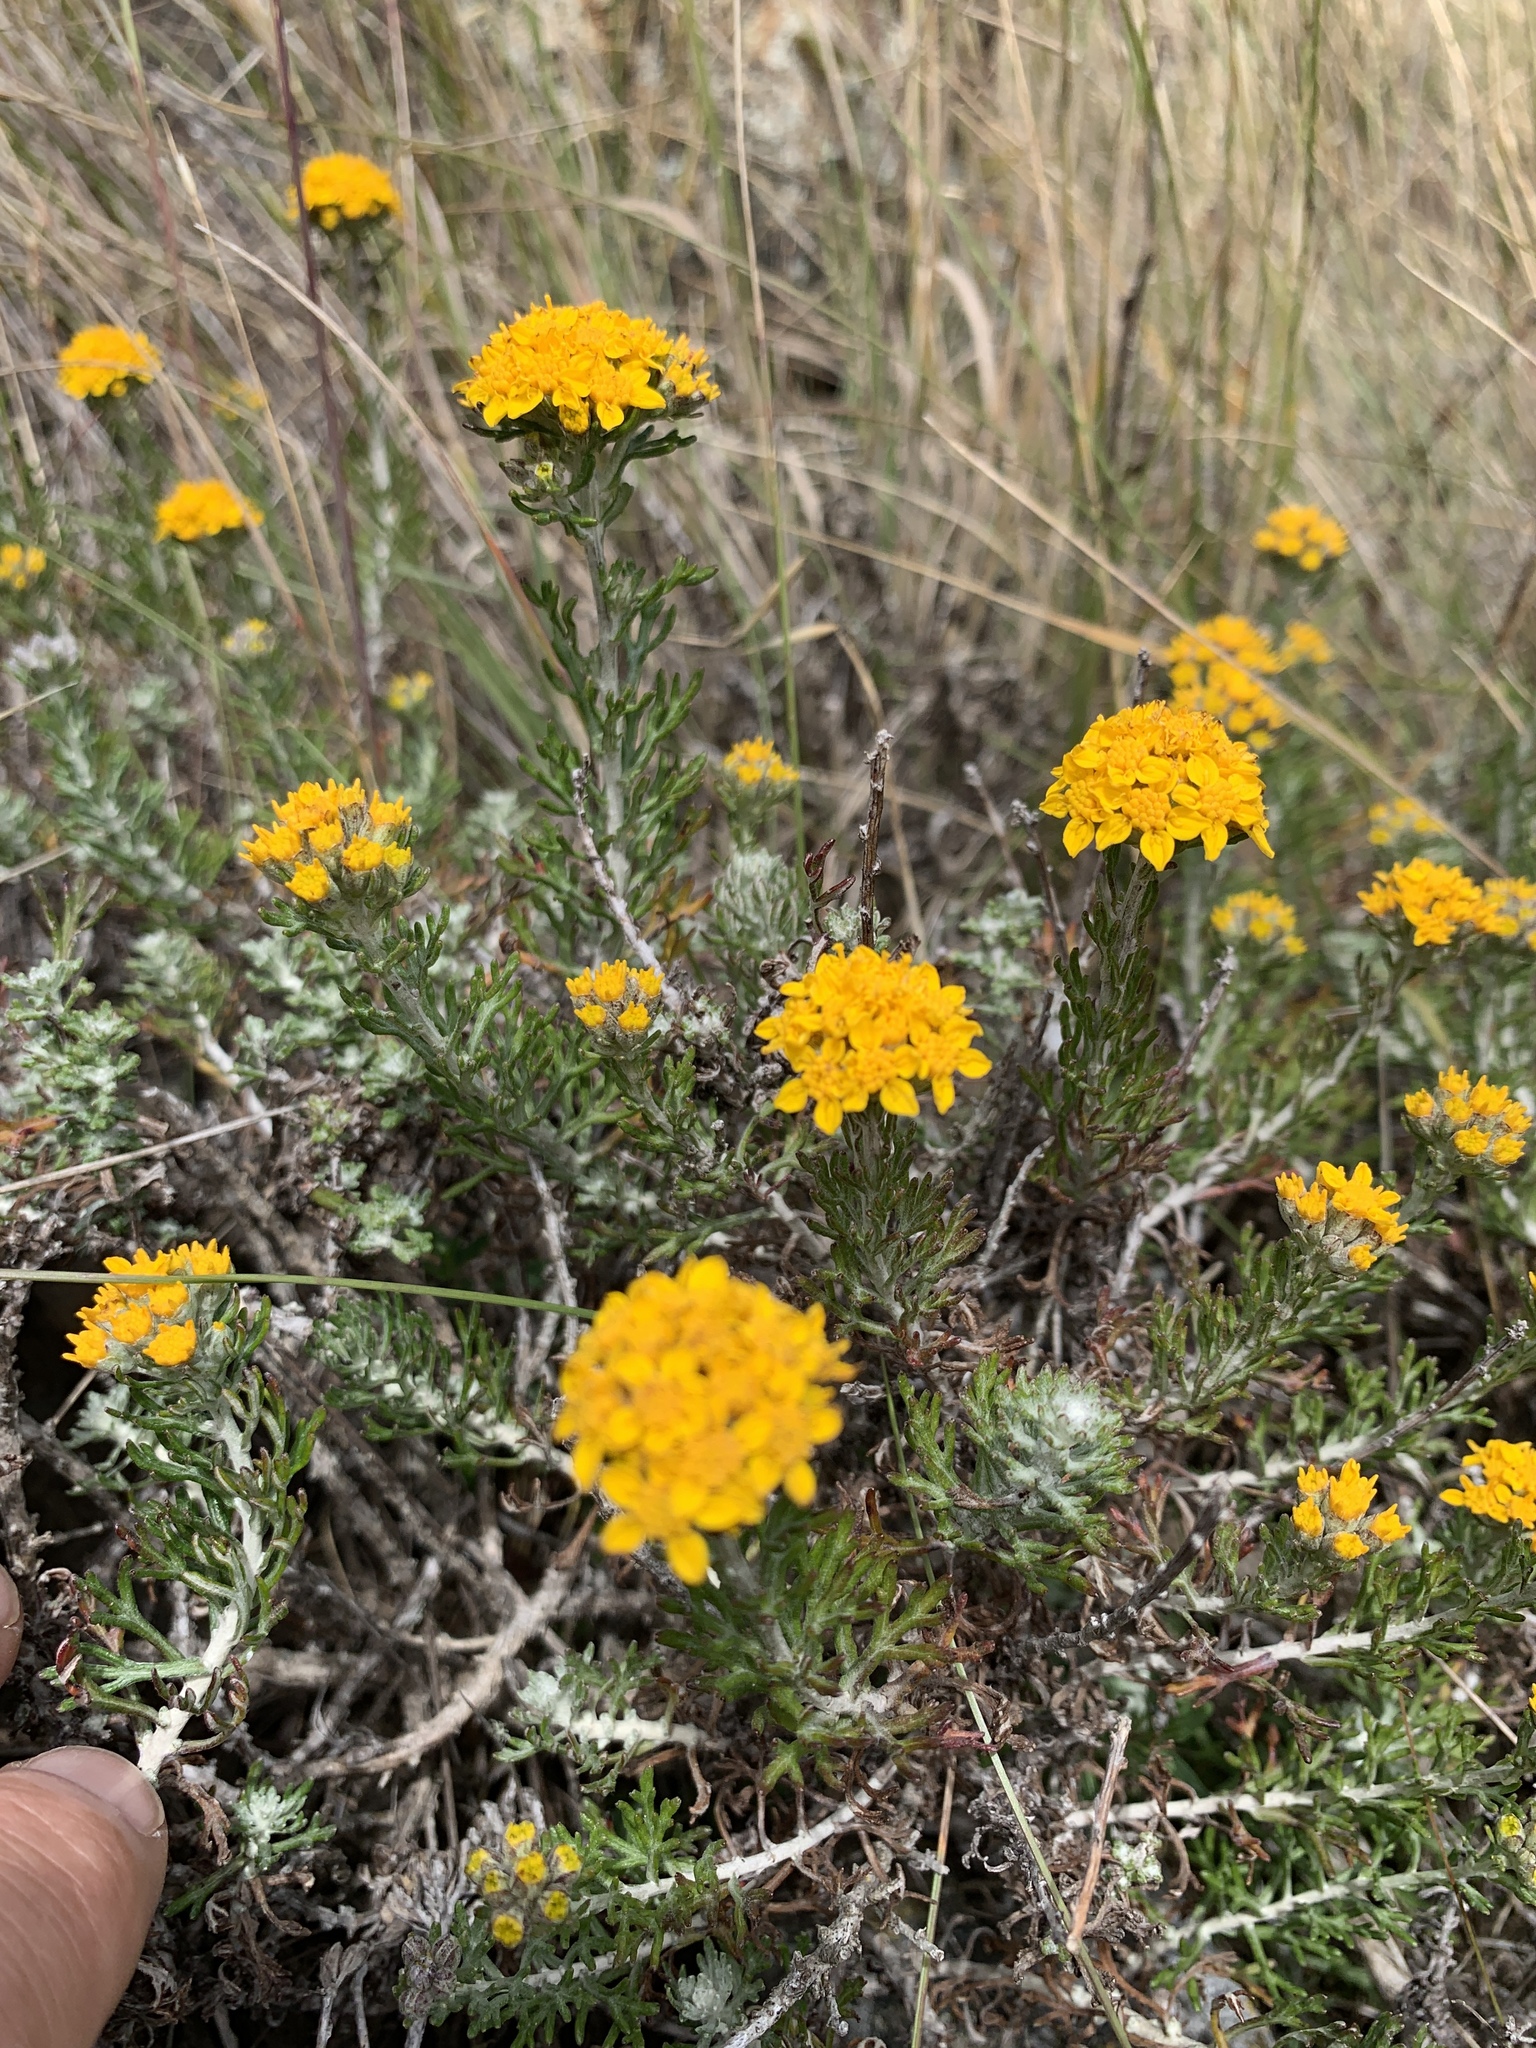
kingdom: Plantae
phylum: Tracheophyta
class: Magnoliopsida
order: Asterales
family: Asteraceae
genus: Eriophyllum
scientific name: Eriophyllum confertiflorum
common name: Golden-yarrow
